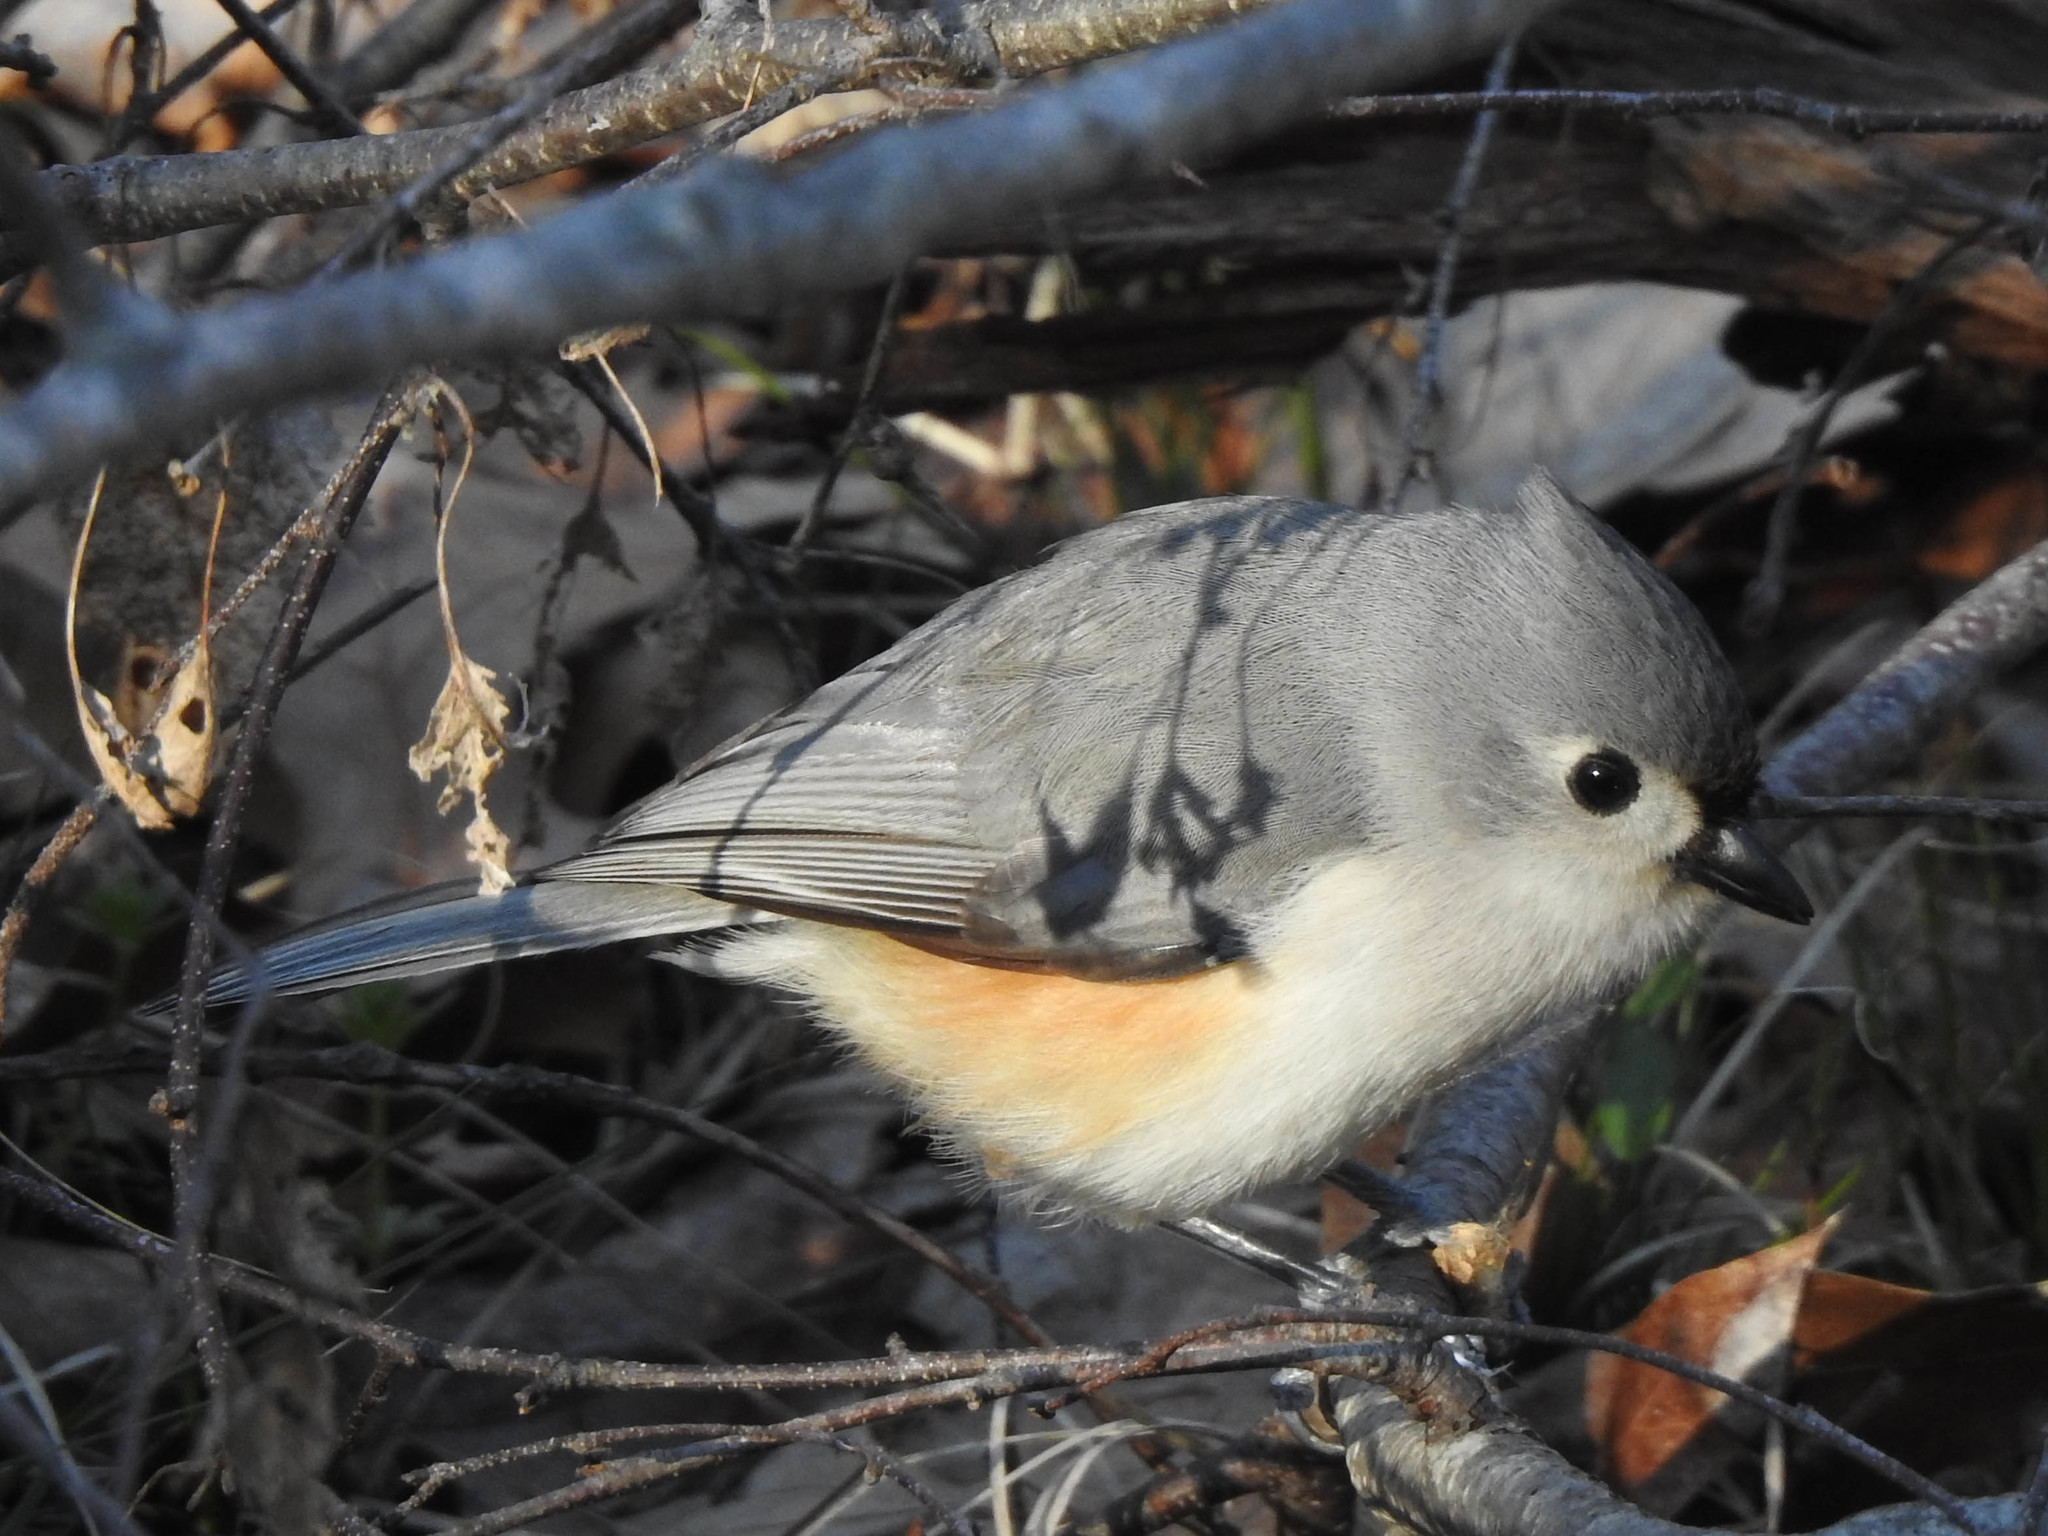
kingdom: Animalia
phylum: Chordata
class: Aves
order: Passeriformes
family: Paridae
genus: Baeolophus
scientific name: Baeolophus bicolor
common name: Tufted titmouse
